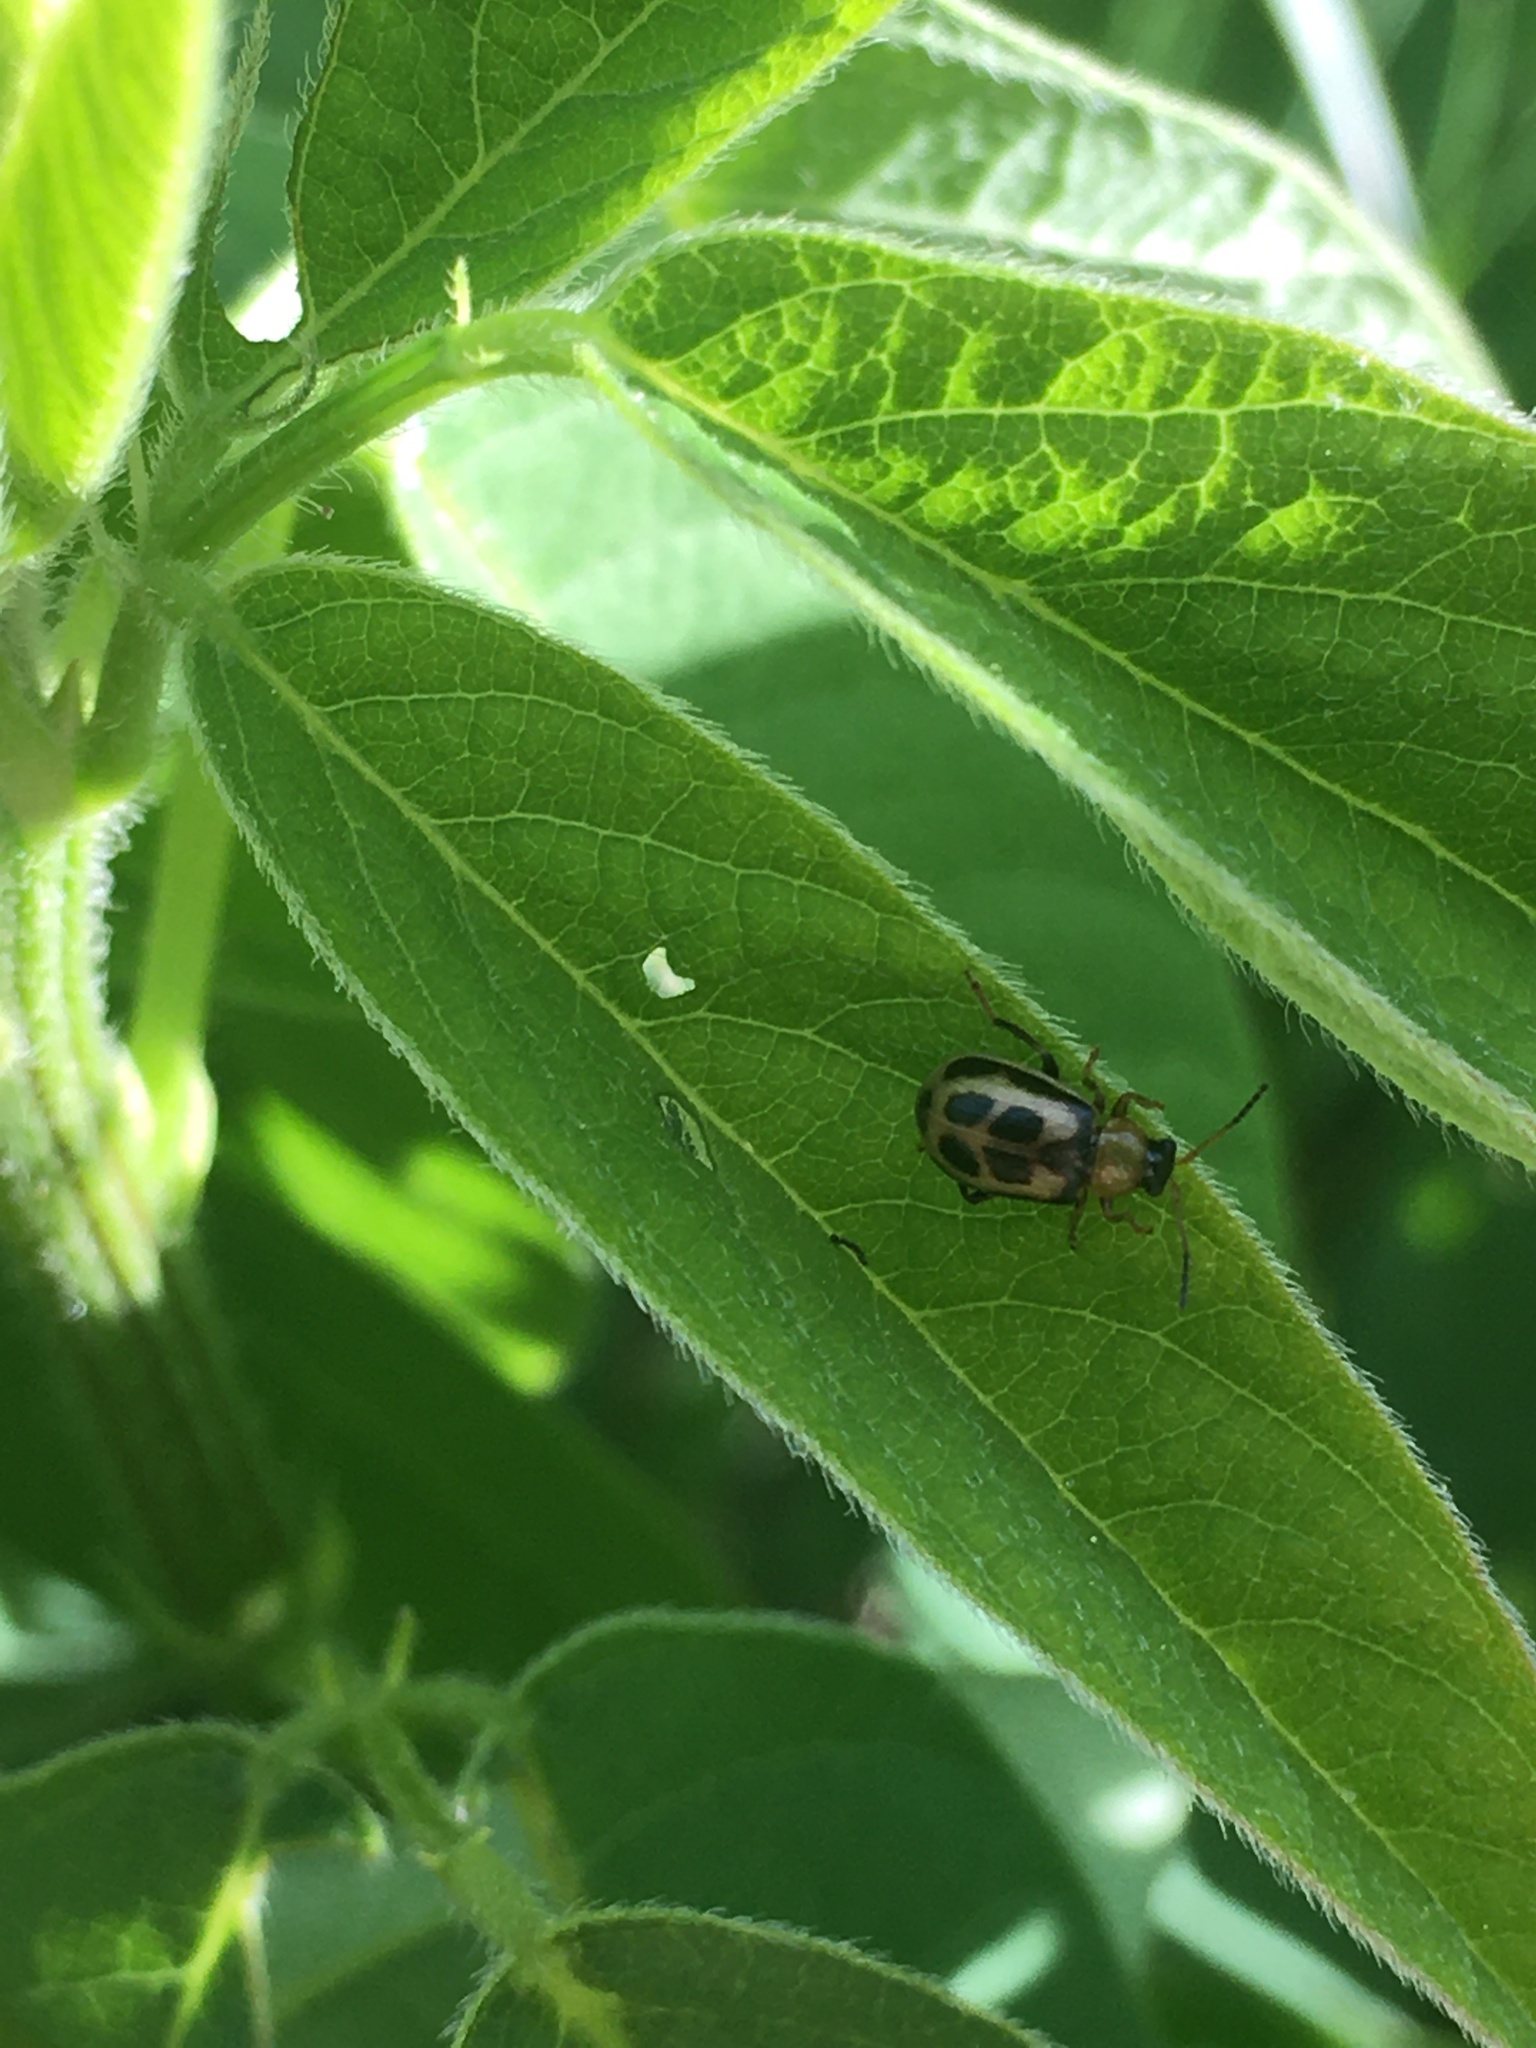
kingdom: Animalia
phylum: Arthropoda
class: Insecta
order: Coleoptera
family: Chrysomelidae
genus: Cerotoma
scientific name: Cerotoma trifurcata
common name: Bean leaf beetle
